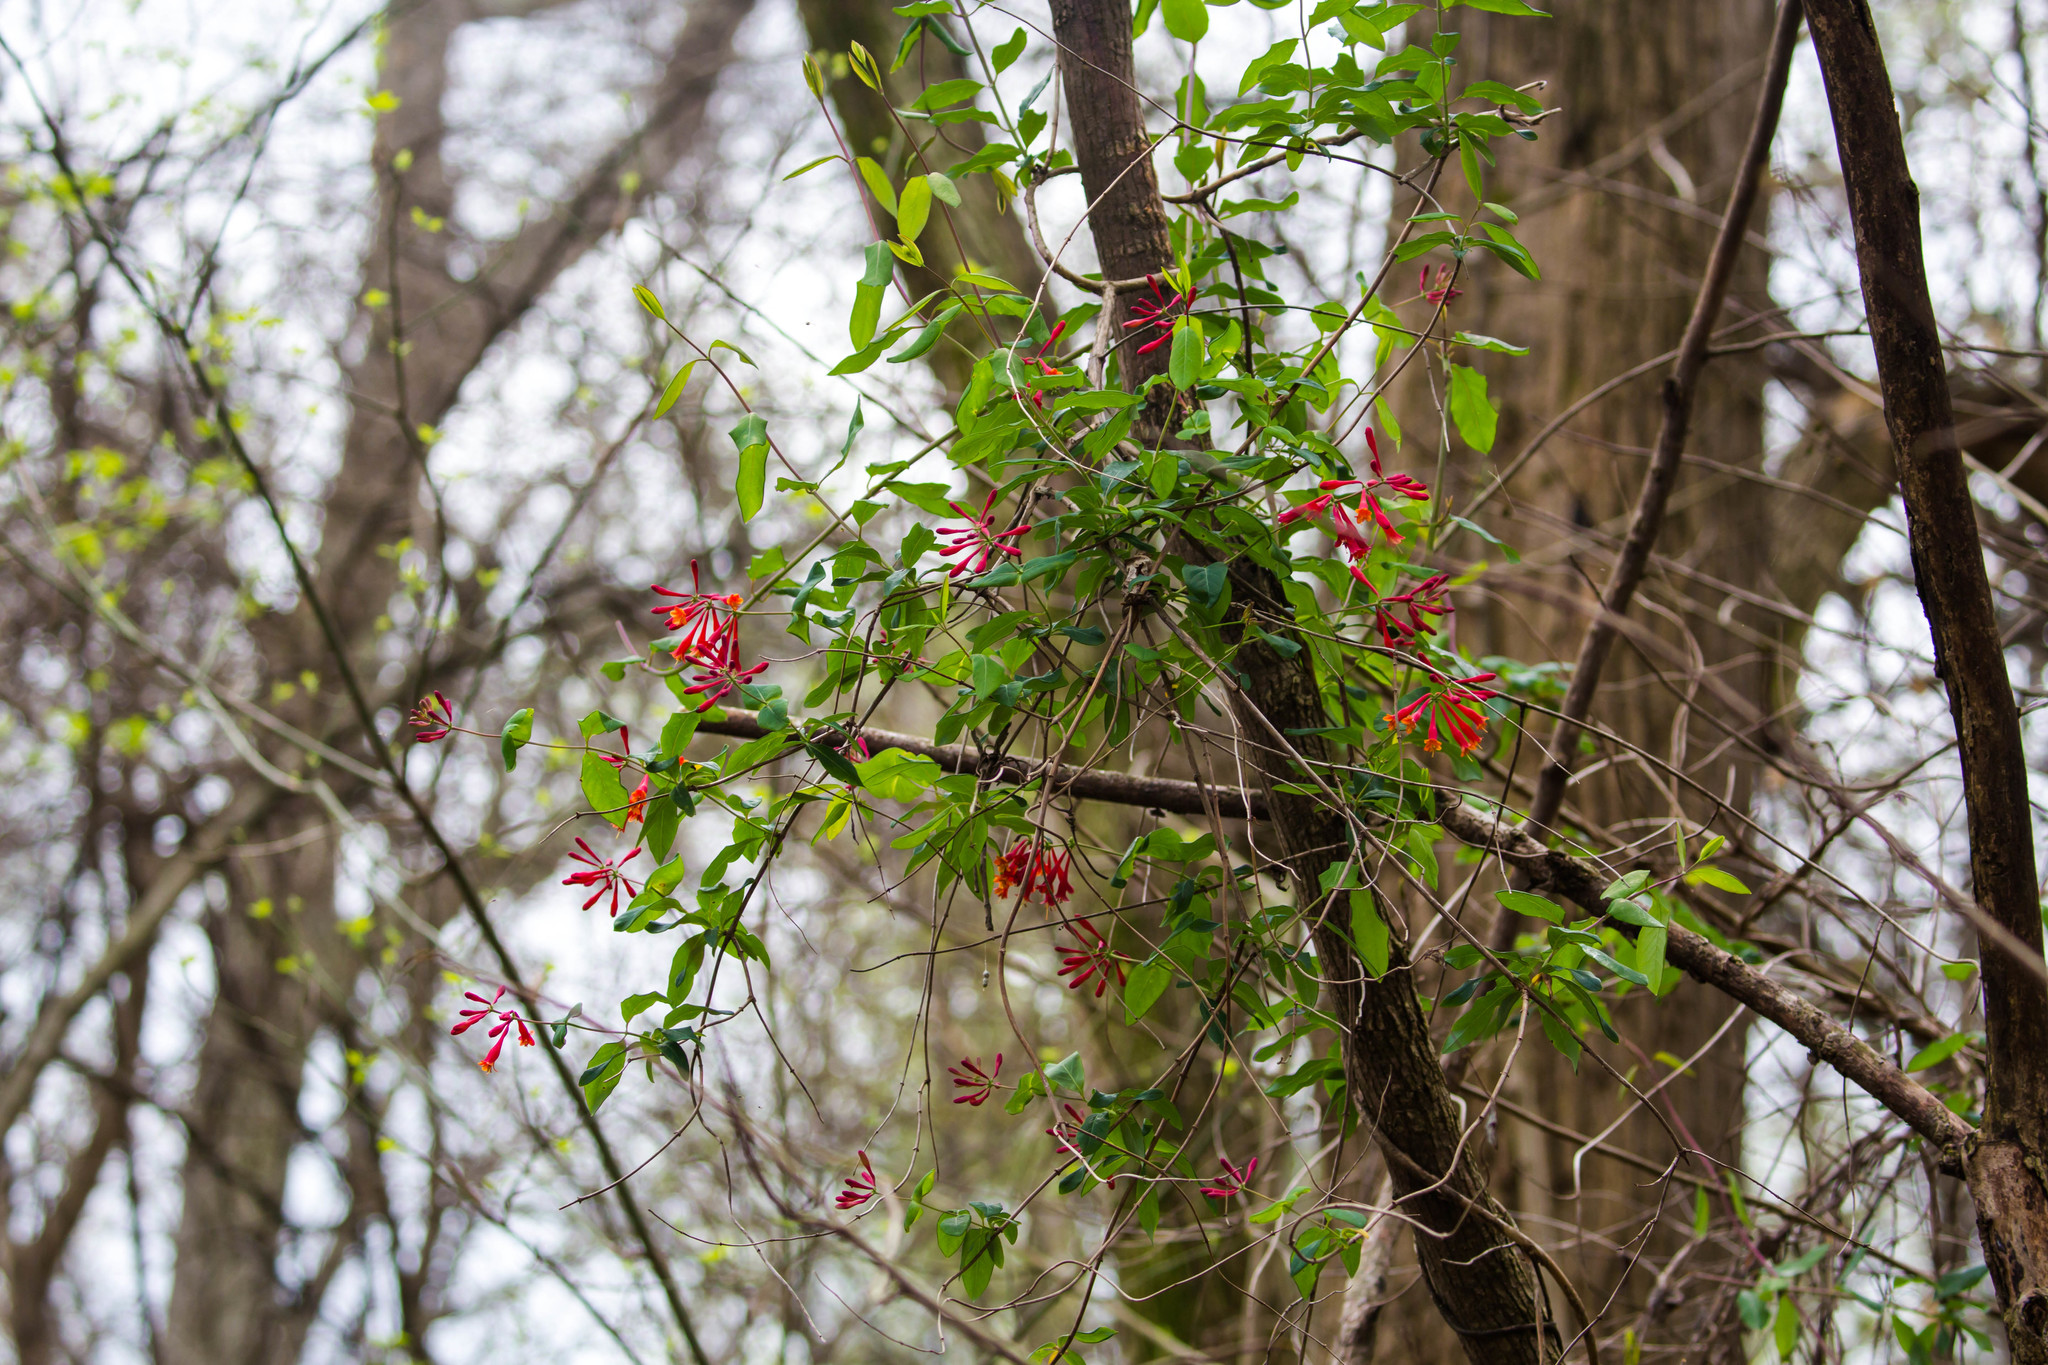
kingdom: Plantae
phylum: Tracheophyta
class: Magnoliopsida
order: Dipsacales
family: Caprifoliaceae
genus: Lonicera
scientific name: Lonicera sempervirens
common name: Coral honeysuckle
